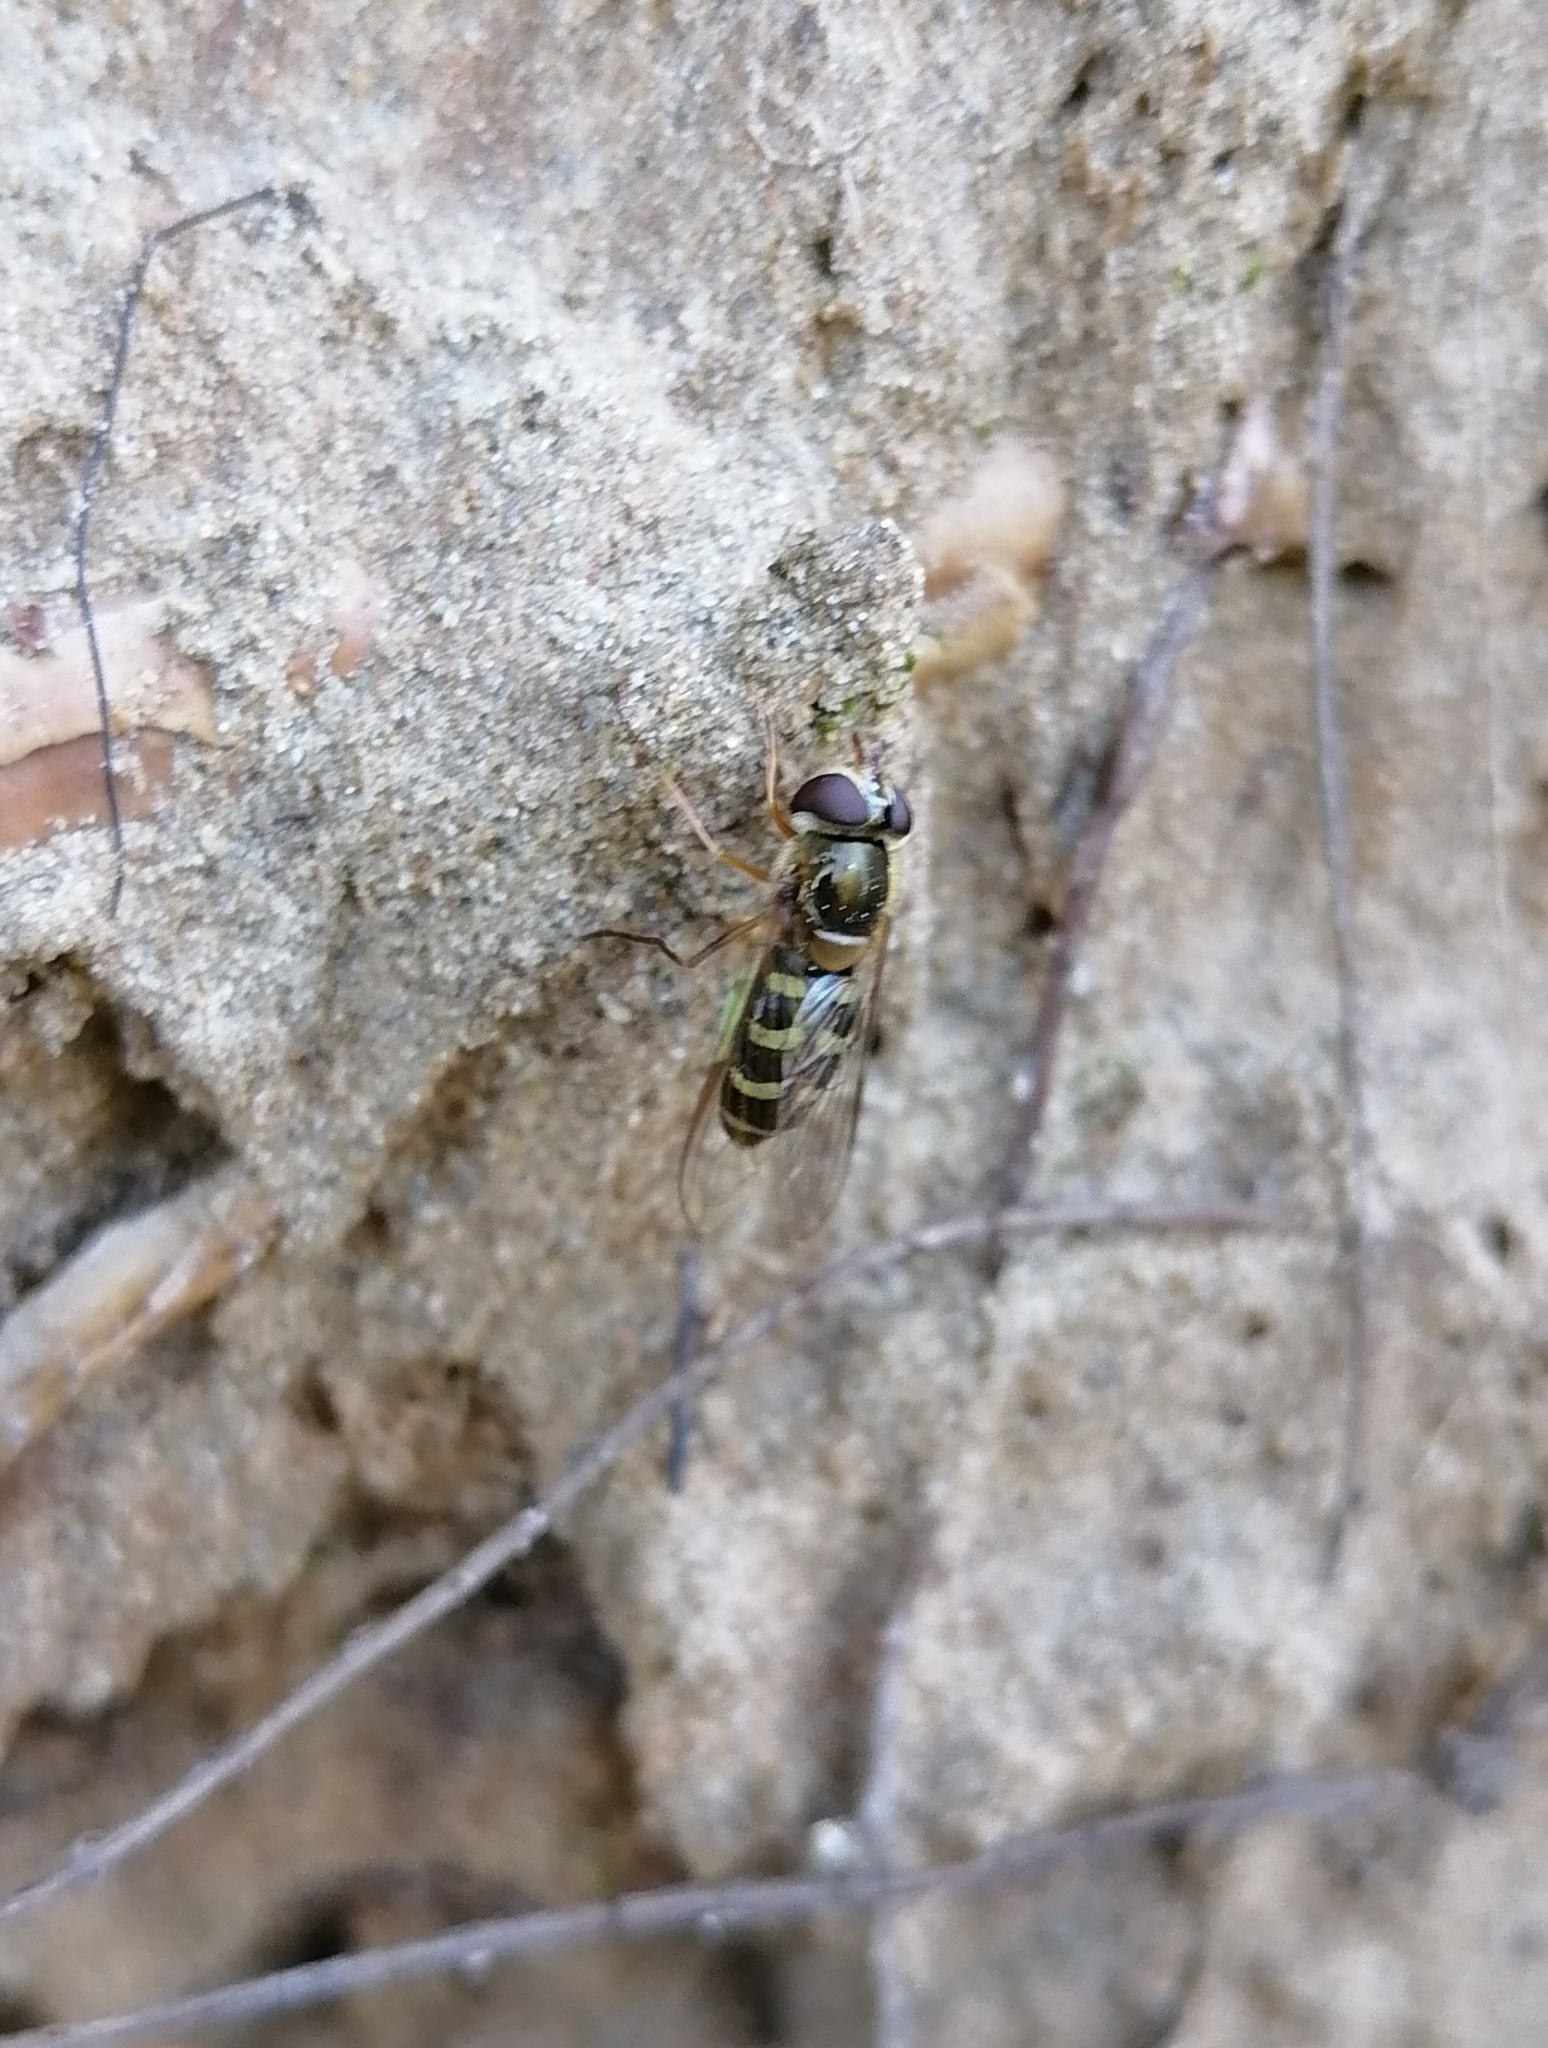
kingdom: Animalia
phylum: Arthropoda
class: Insecta
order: Diptera
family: Syrphidae
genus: Lapposyrphus
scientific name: Lapposyrphus lapponicus
